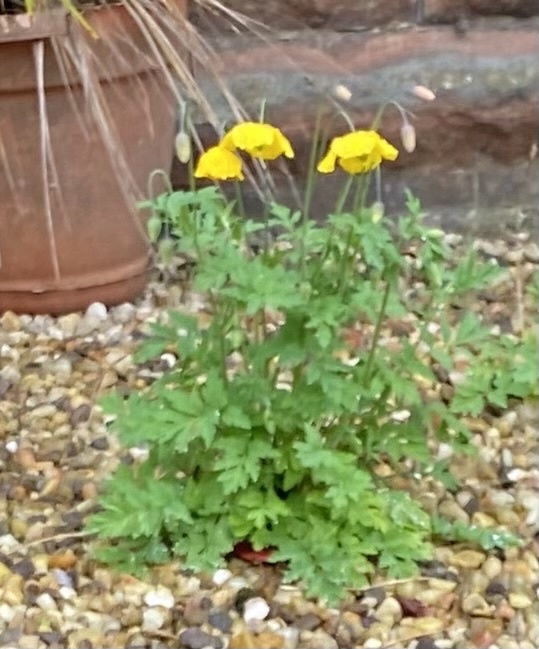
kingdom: Plantae
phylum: Tracheophyta
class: Magnoliopsida
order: Ranunculales
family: Papaveraceae
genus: Papaver
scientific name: Papaver cambricum
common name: Poppy
